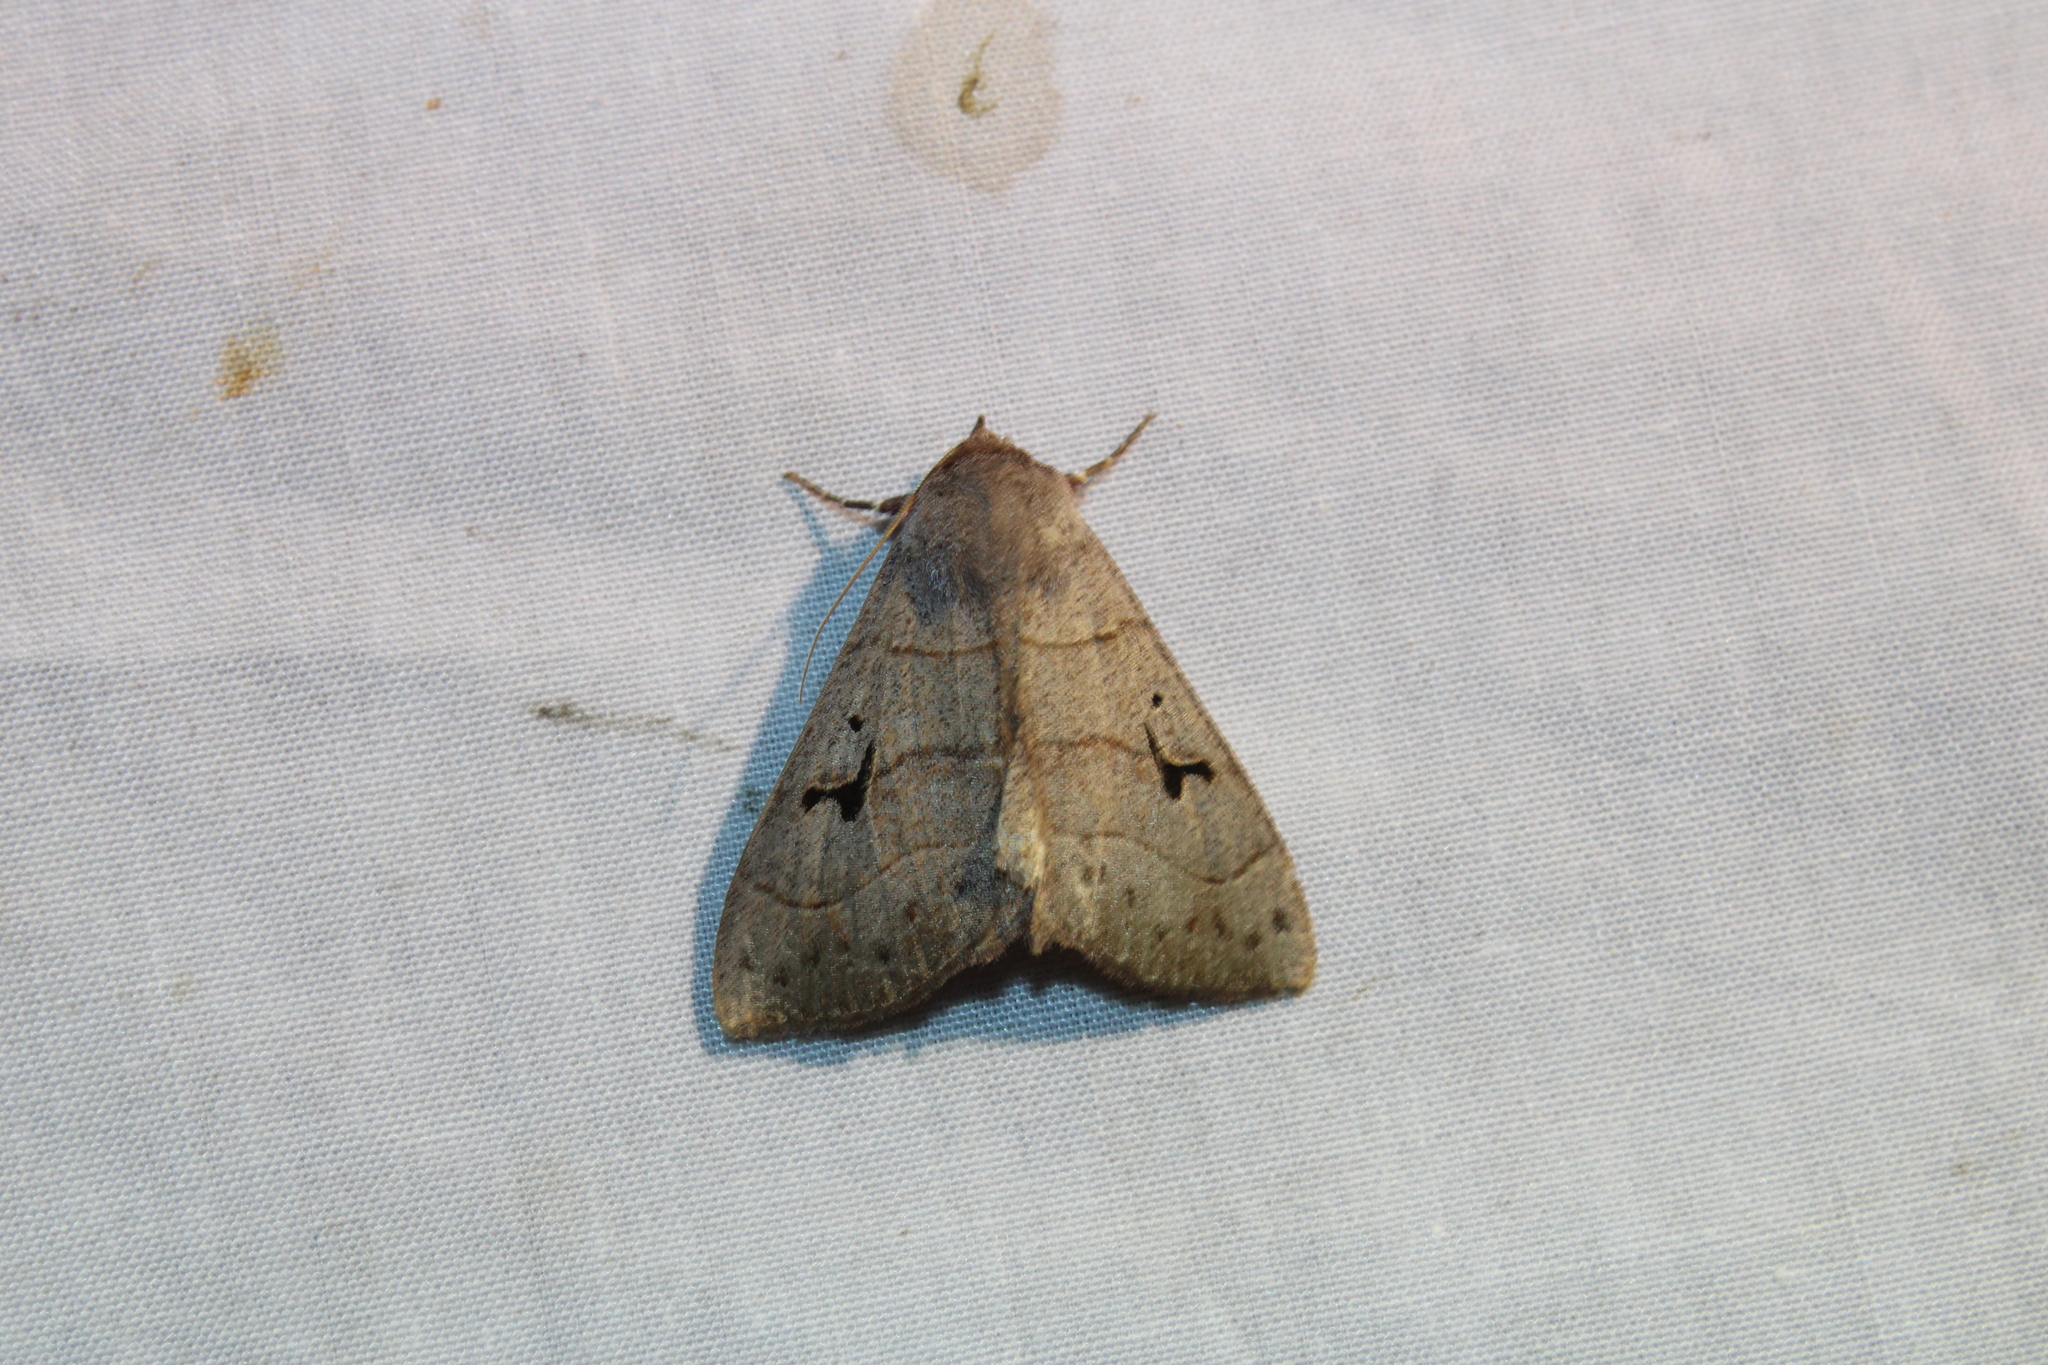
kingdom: Animalia
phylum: Arthropoda
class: Insecta
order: Lepidoptera
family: Erebidae
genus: Panopoda
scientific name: Panopoda carneicosta
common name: Brown panopoda moth
